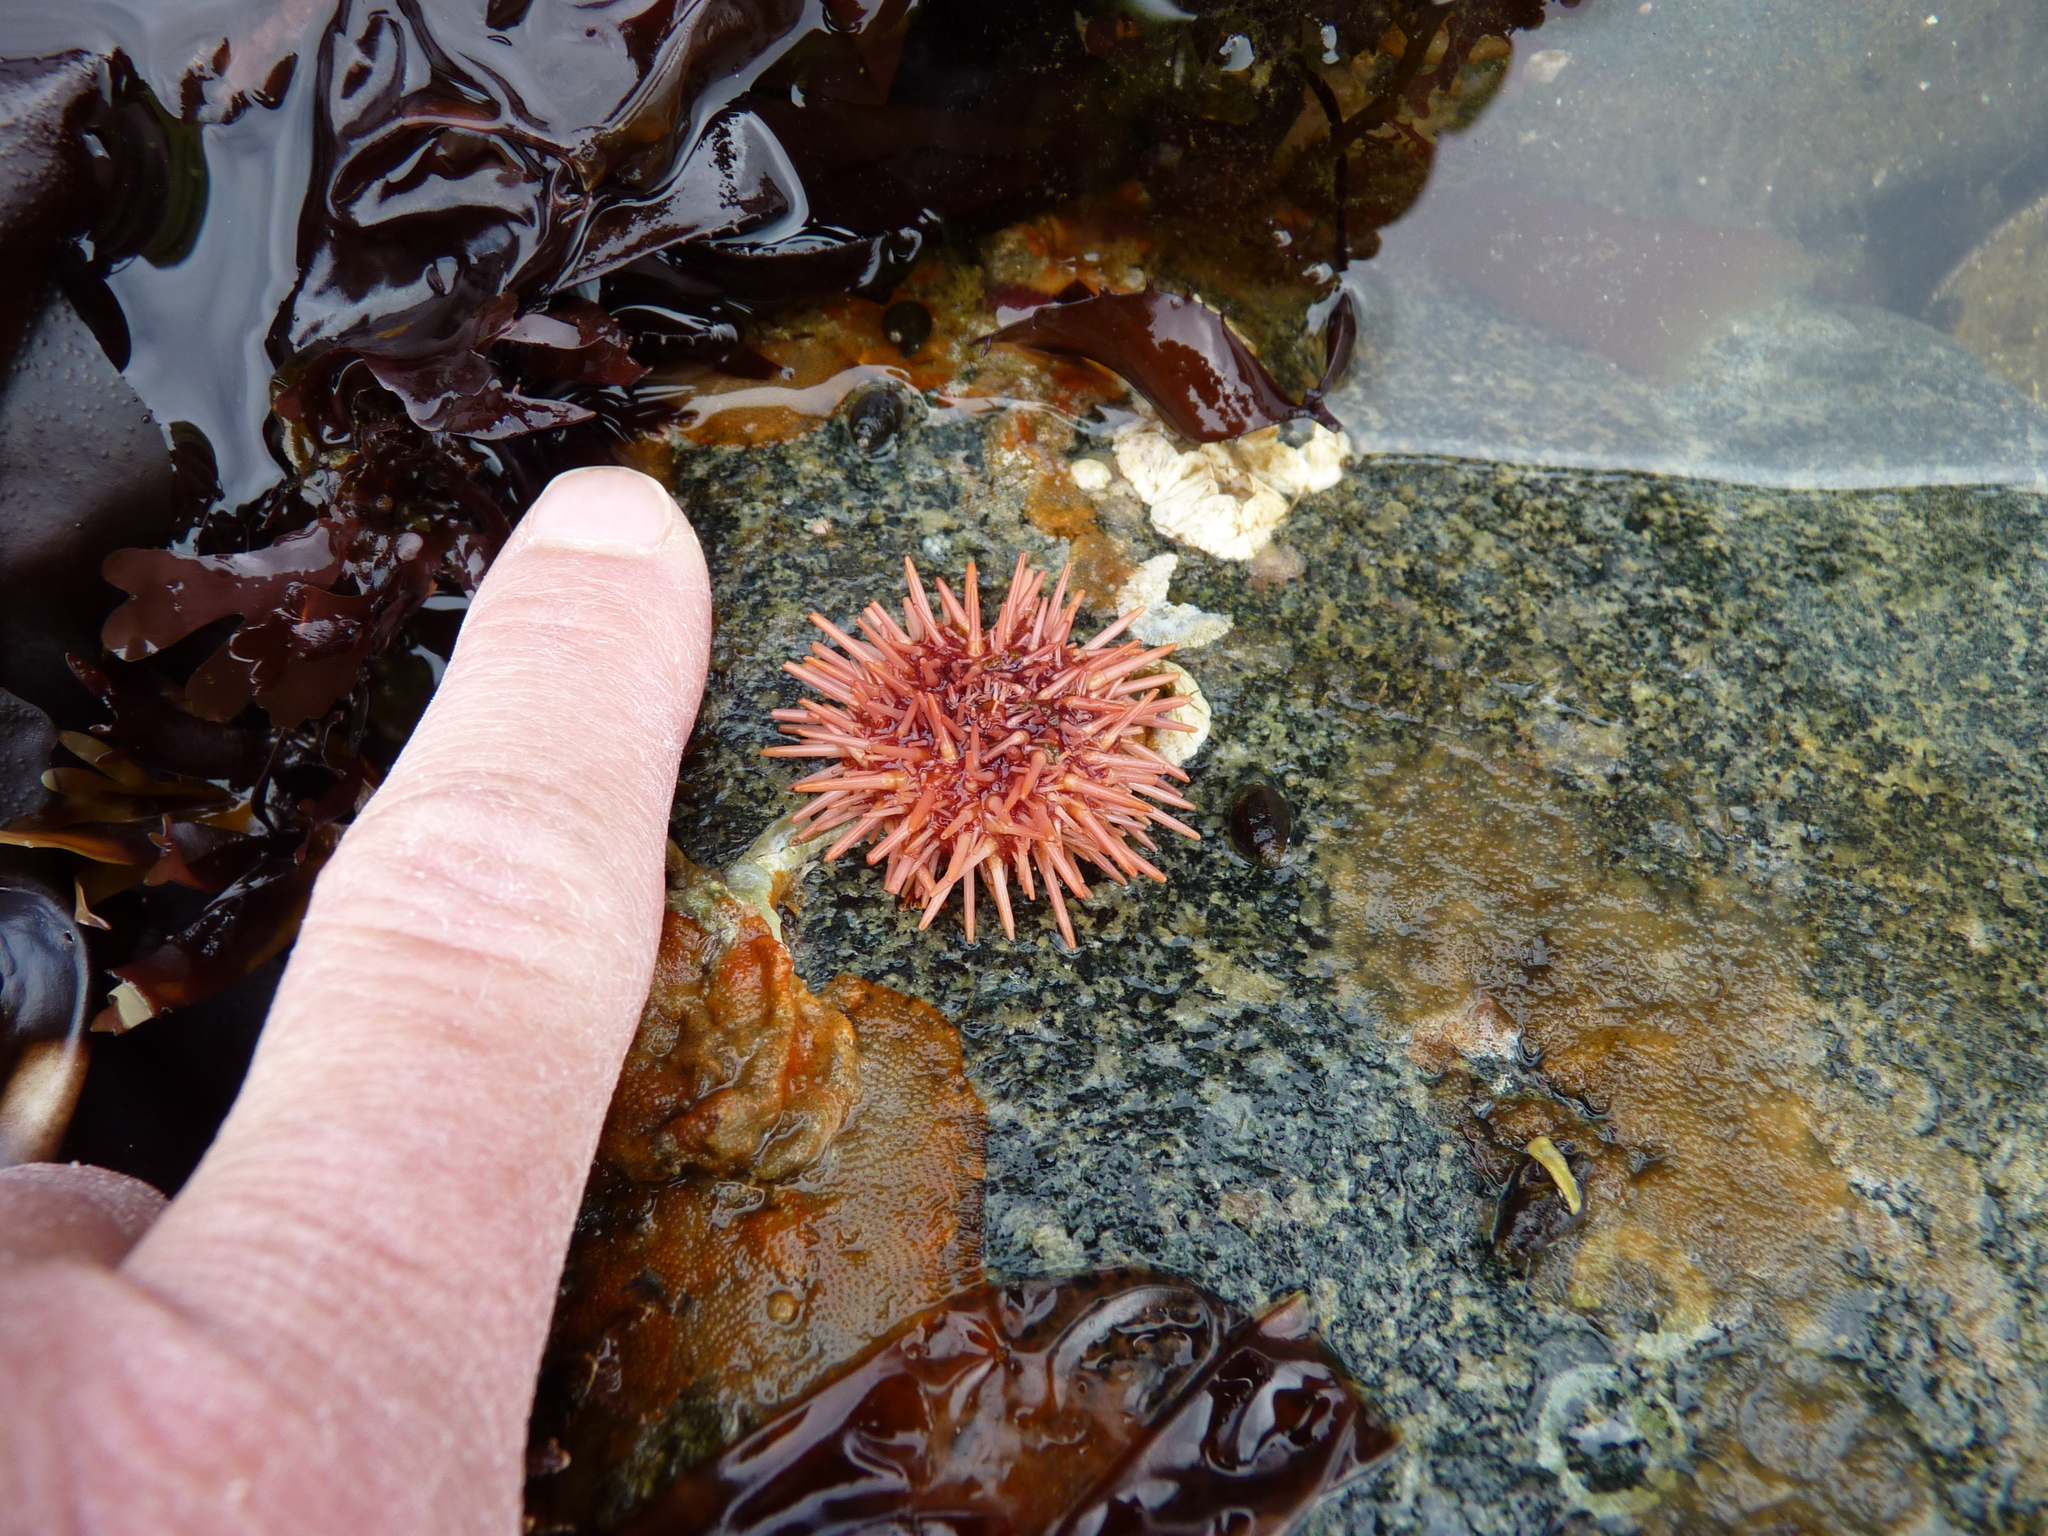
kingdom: Animalia
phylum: Echinodermata
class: Echinoidea
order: Camarodonta
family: Strongylocentrotidae
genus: Mesocentrotus
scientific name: Mesocentrotus franciscanus
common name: Red sea urchin
